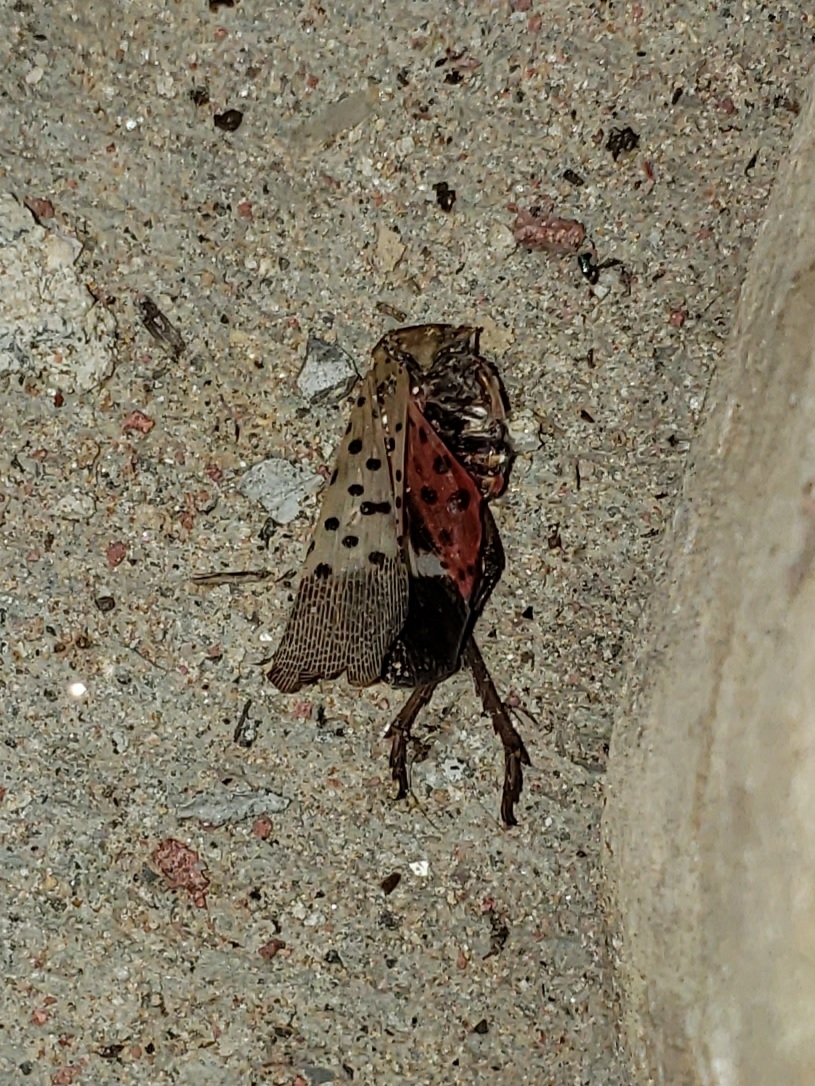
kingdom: Animalia
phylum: Arthropoda
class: Insecta
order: Hemiptera
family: Fulgoridae
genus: Lycorma
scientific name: Lycorma delicatula
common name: Spotted lanternfly
